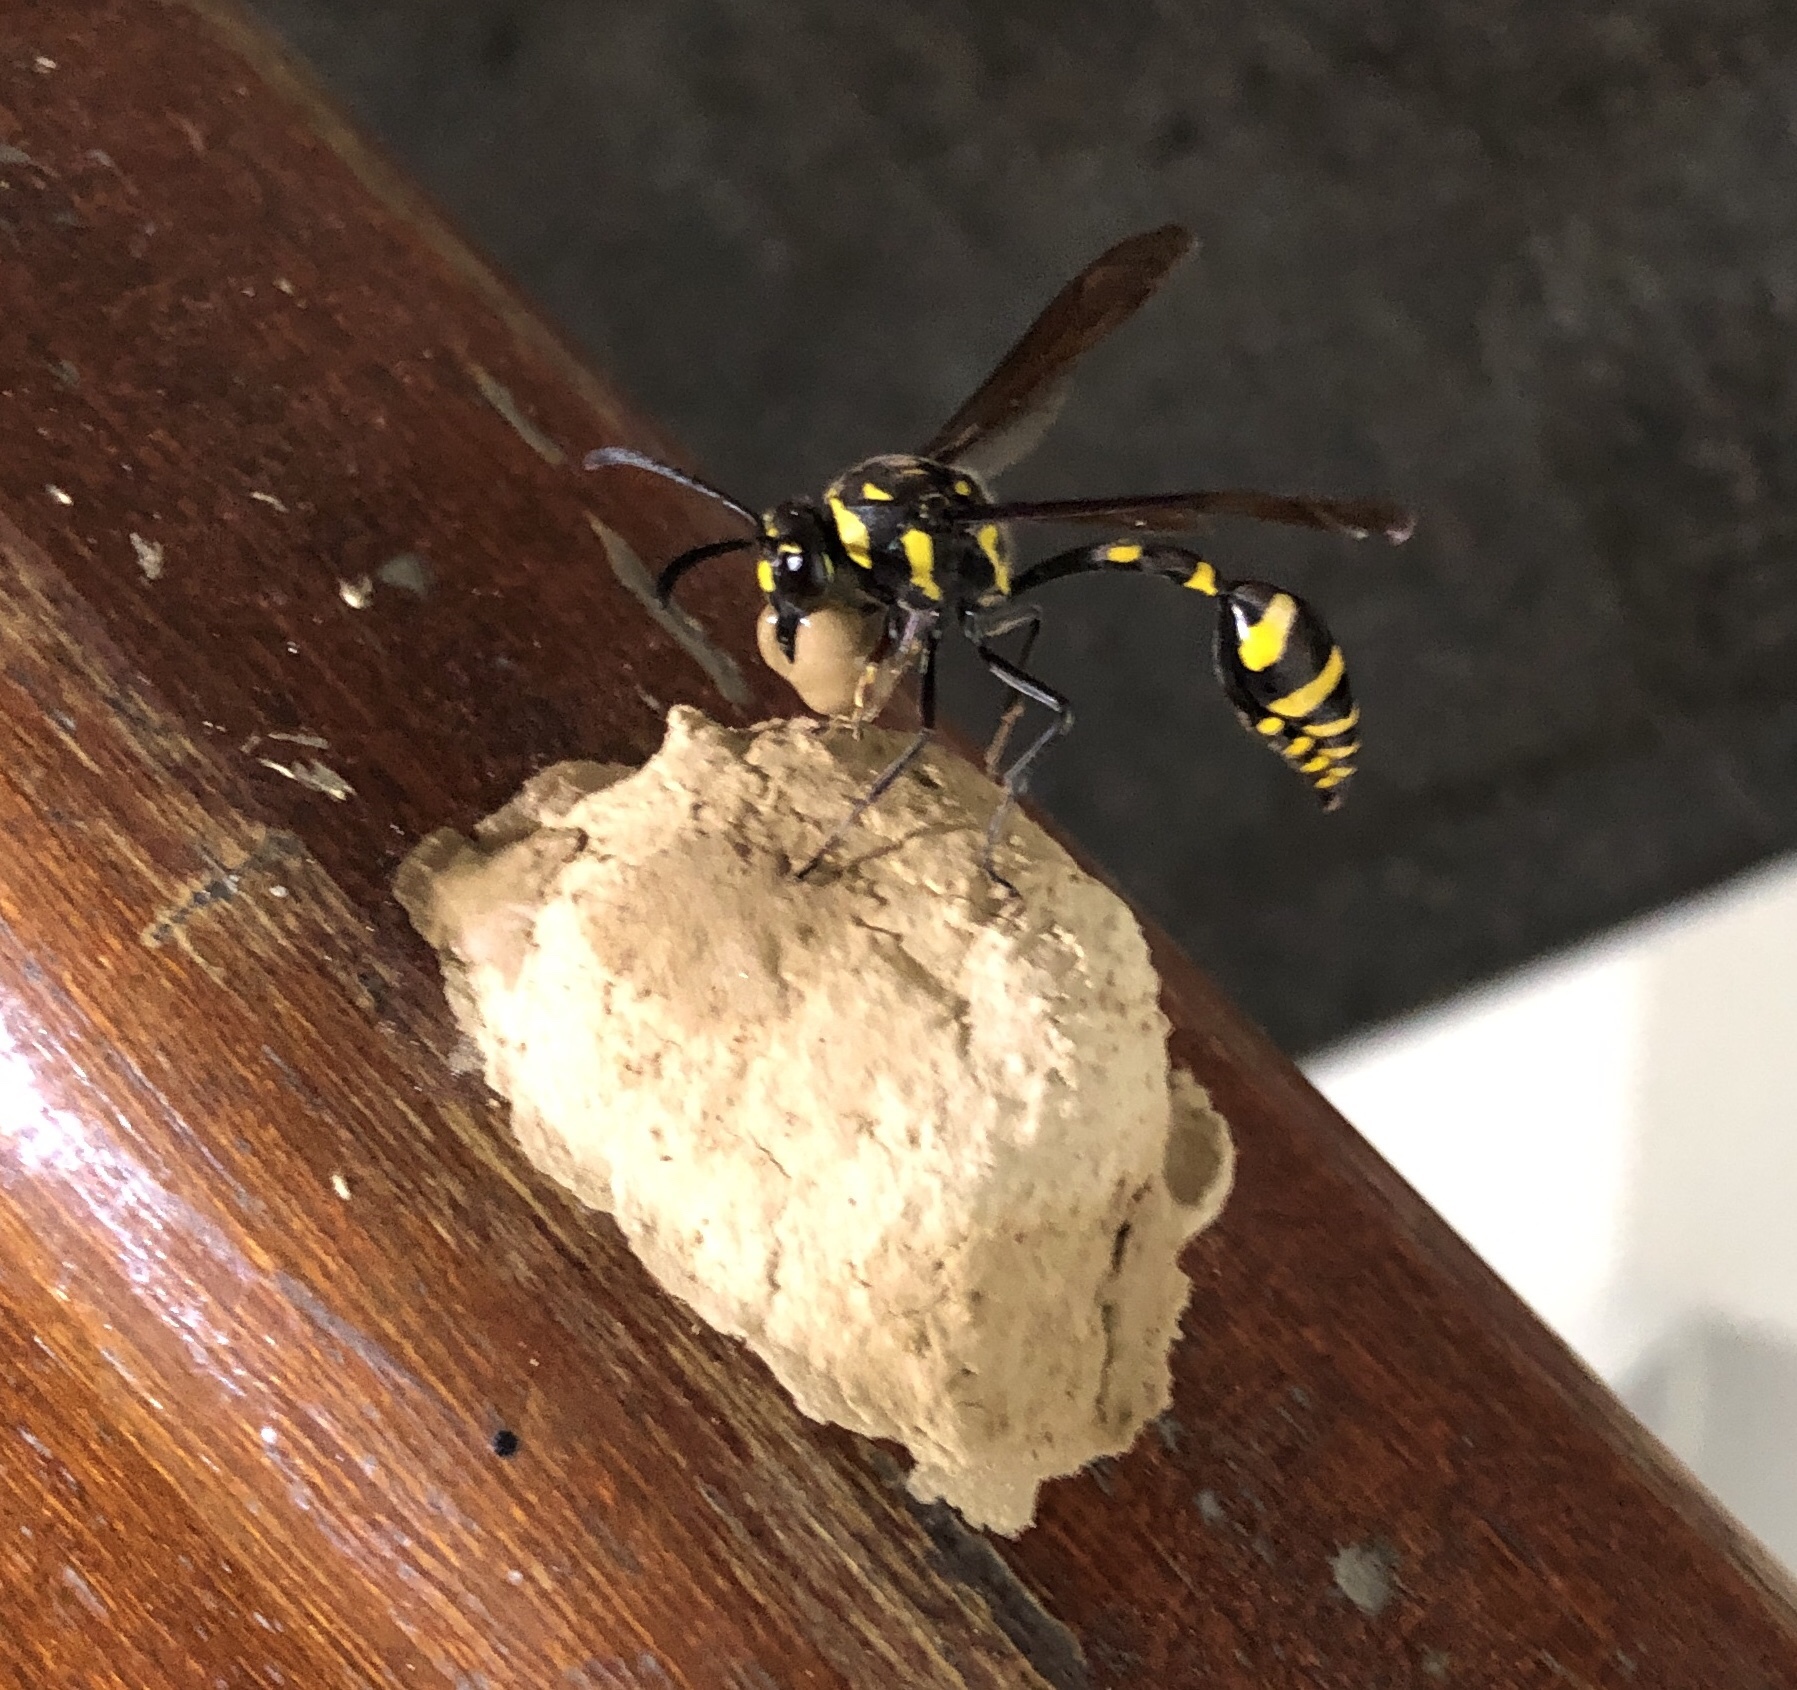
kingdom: Animalia
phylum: Arthropoda
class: Insecta
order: Hymenoptera
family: Eumenidae
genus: Phimenes
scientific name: Phimenes flavopictus
